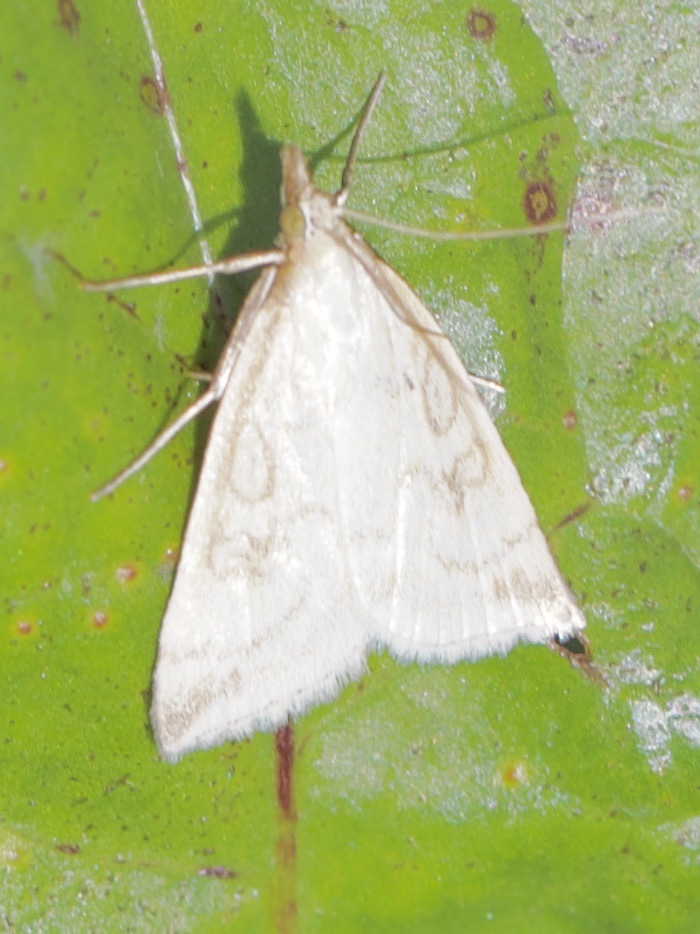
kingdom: Animalia
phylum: Arthropoda
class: Insecta
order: Lepidoptera
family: Crambidae
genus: Udea
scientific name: Udea lutealis
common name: Pale straw pearl
